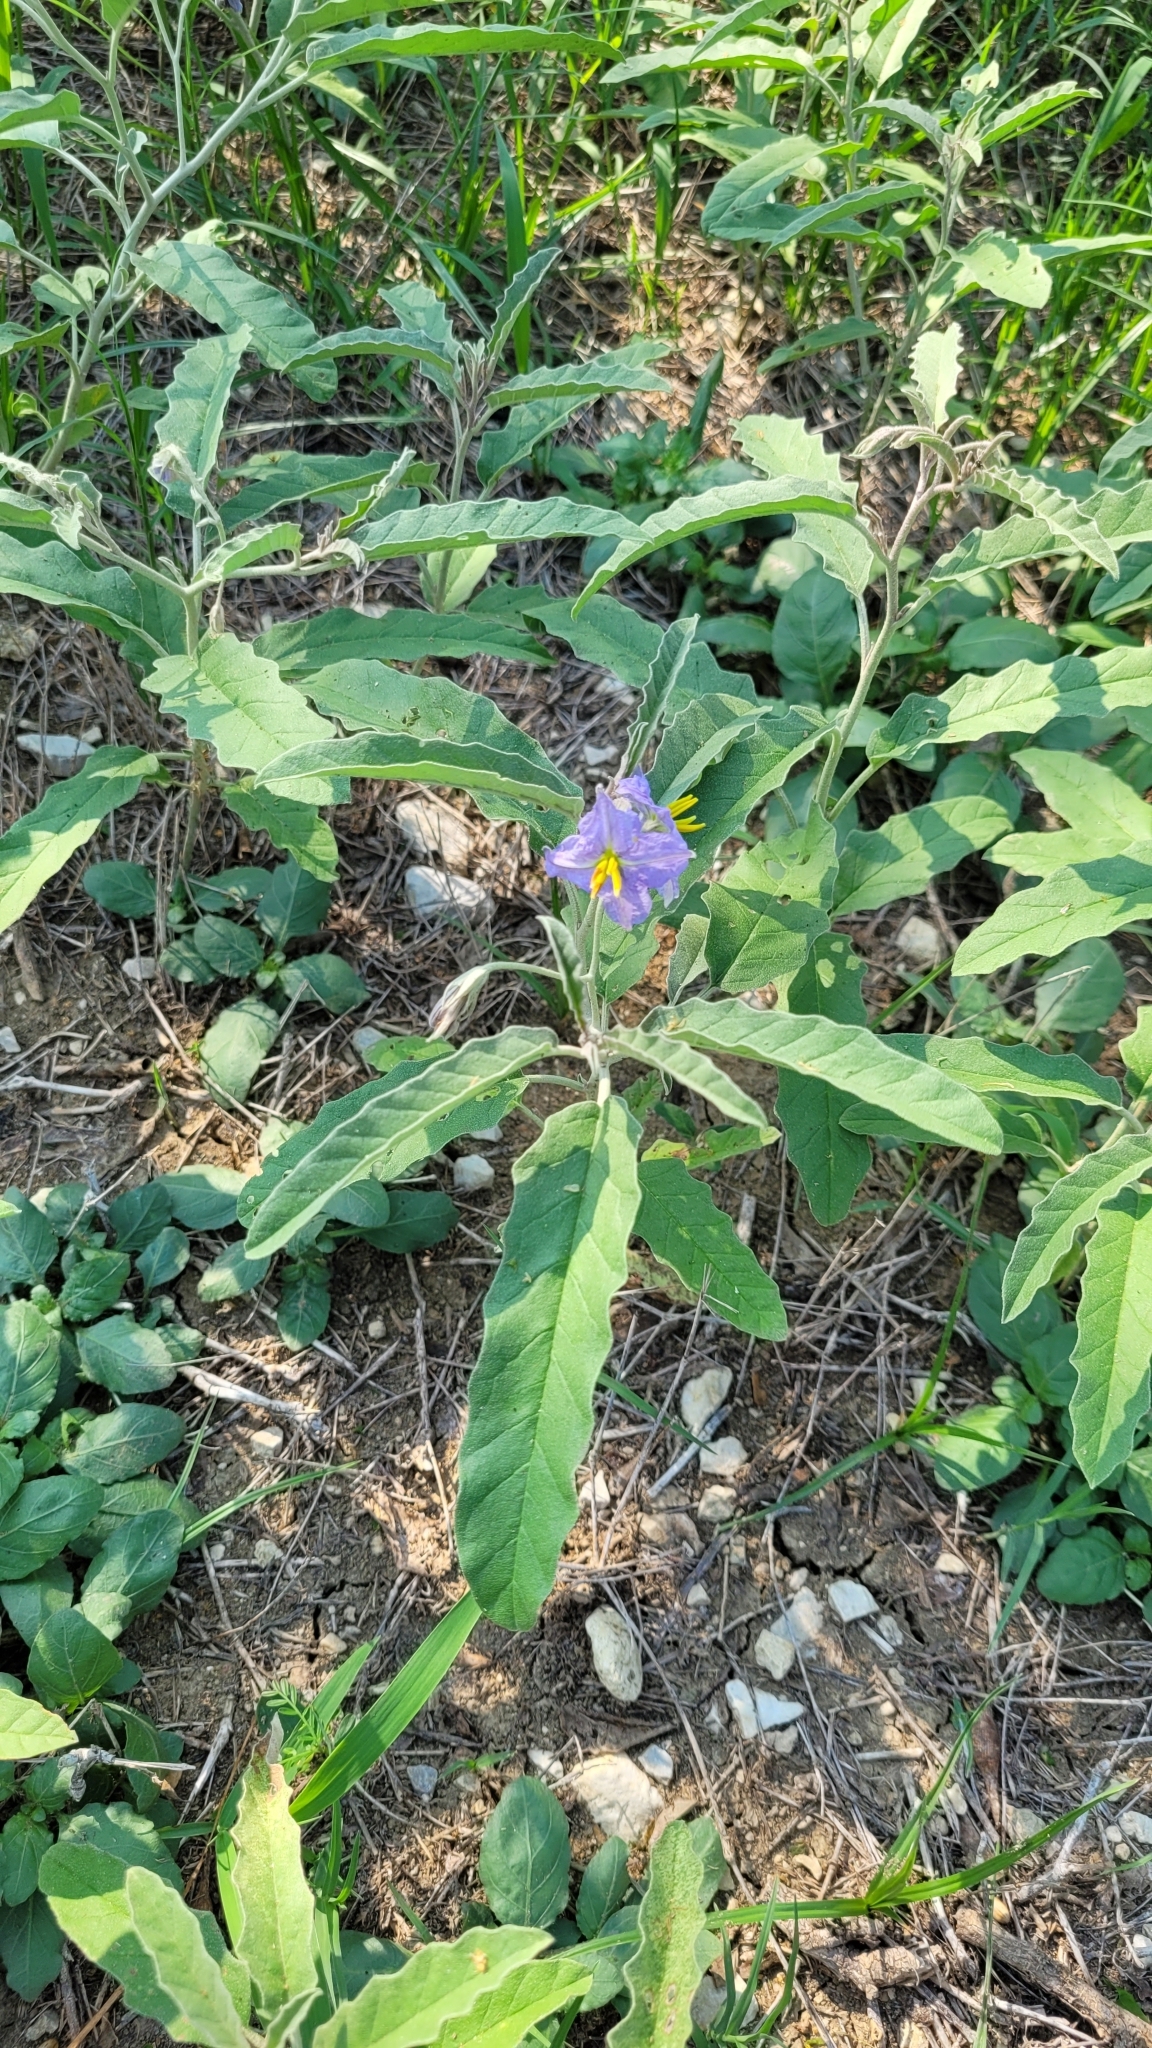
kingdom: Plantae
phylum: Tracheophyta
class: Magnoliopsida
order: Solanales
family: Solanaceae
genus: Solanum
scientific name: Solanum elaeagnifolium
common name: Silverleaf nightshade
